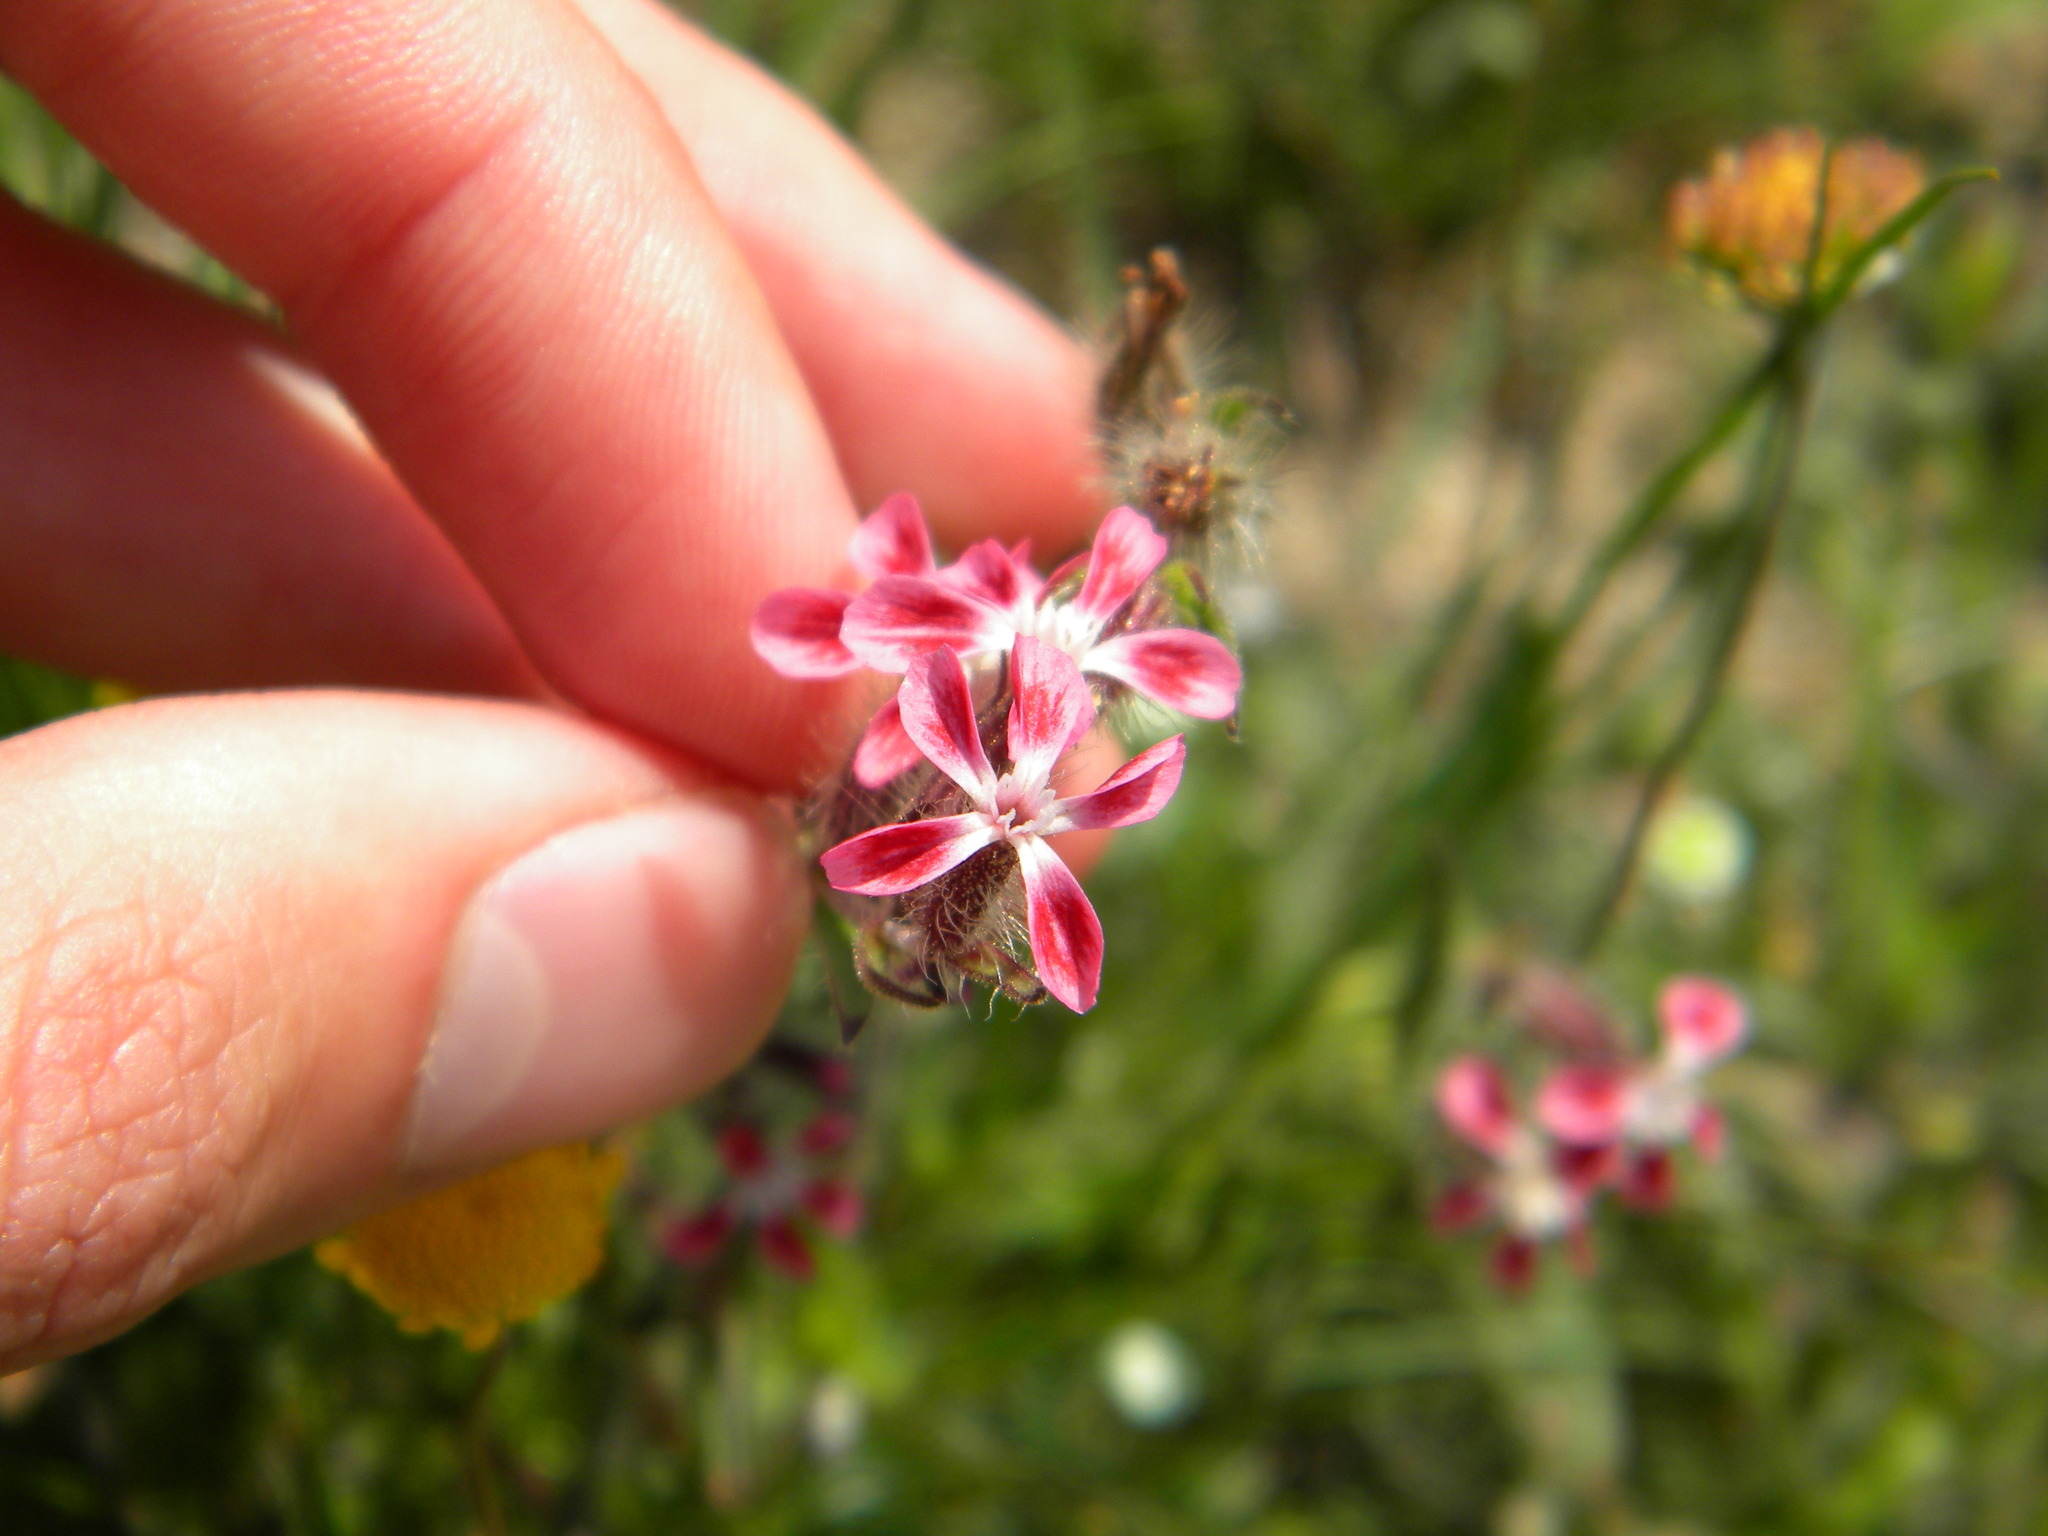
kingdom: Plantae
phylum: Tracheophyta
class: Magnoliopsida
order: Caryophyllales
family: Caryophyllaceae
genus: Silene
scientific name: Silene gallica
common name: Small-flowered catchfly
